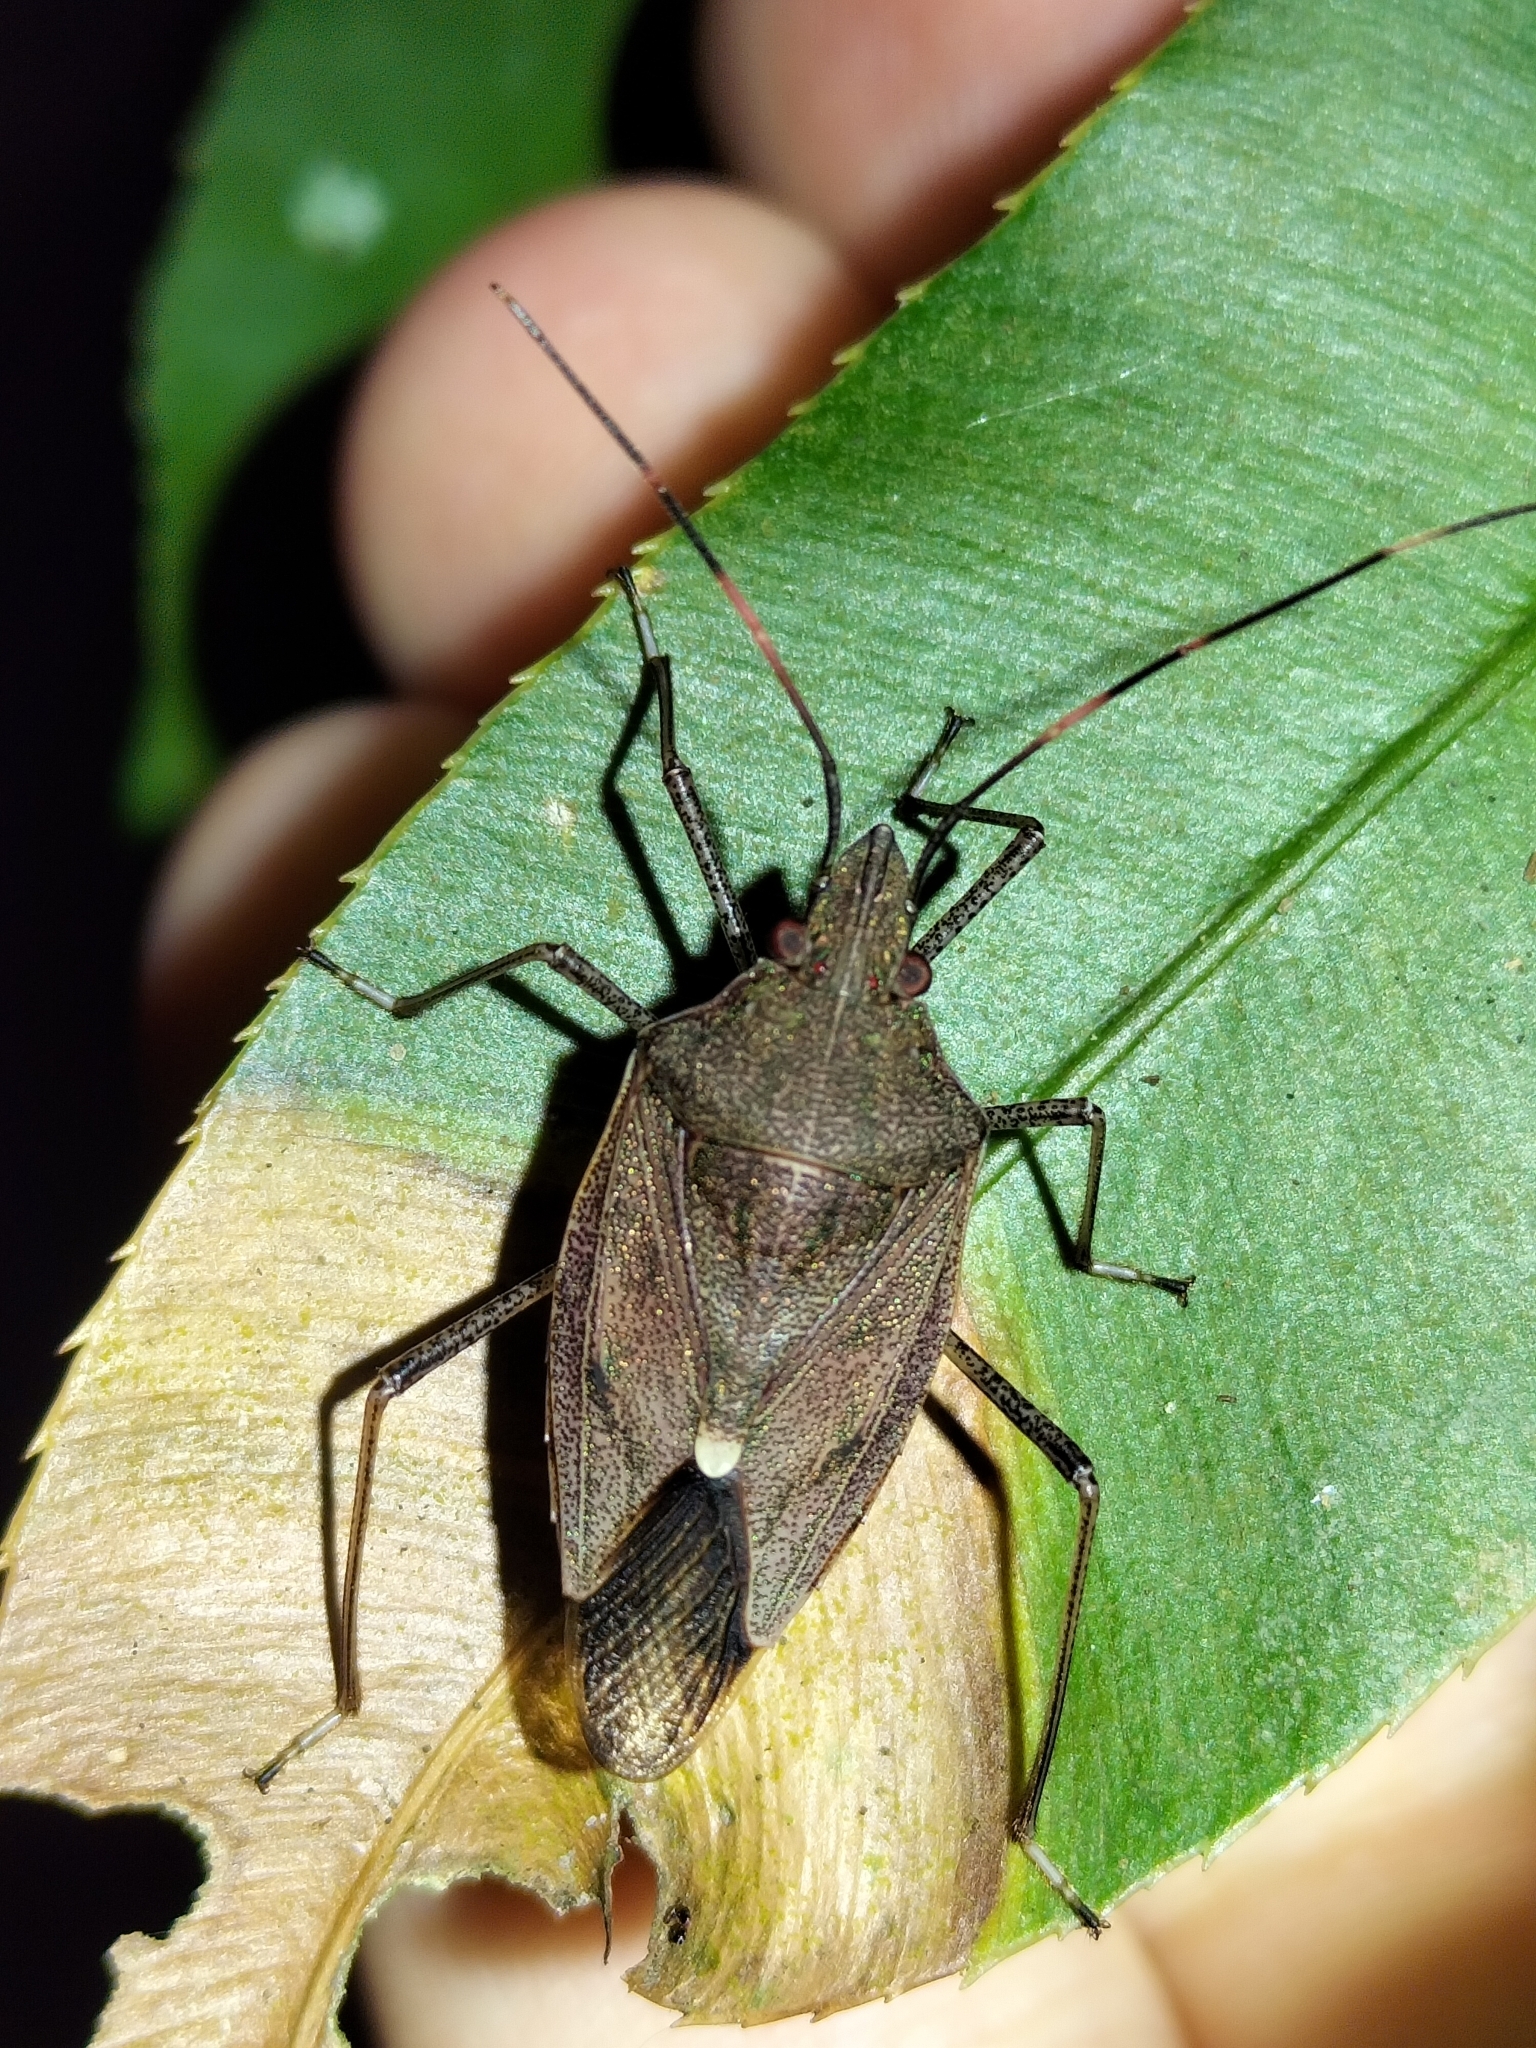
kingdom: Animalia
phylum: Arthropoda
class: Insecta
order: Hemiptera
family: Pentatomidae
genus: Poecilometis
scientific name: Poecilometis
